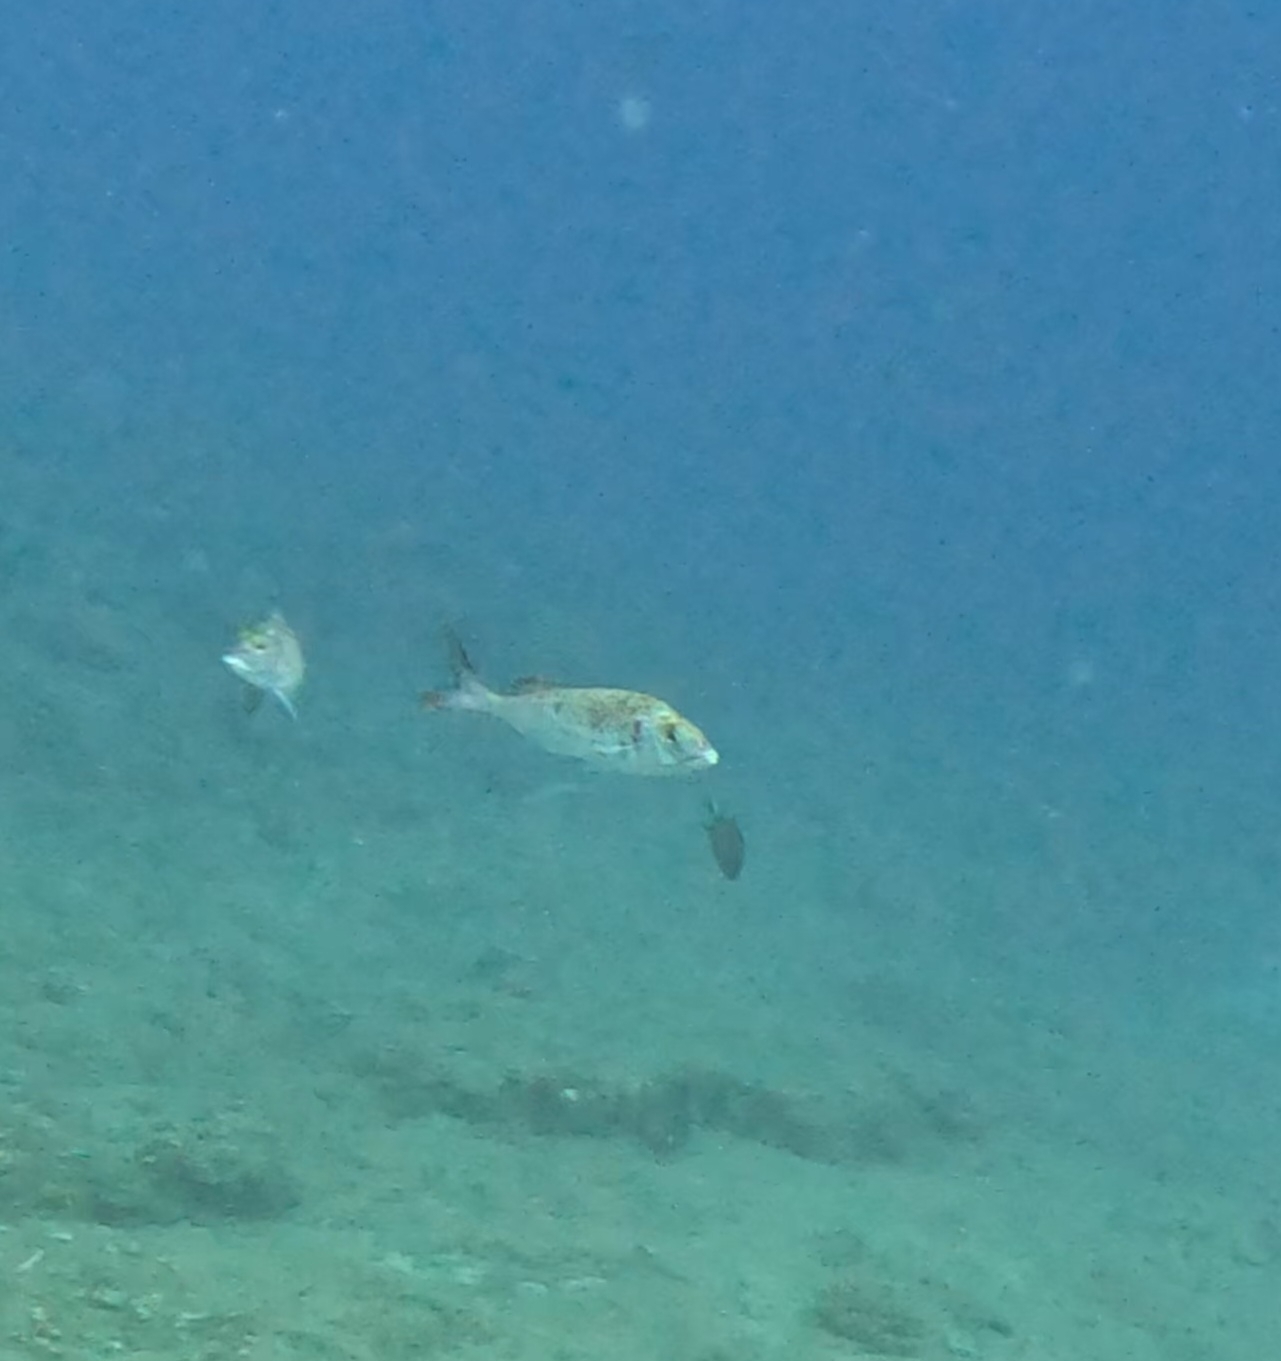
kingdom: Animalia
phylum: Chordata
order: Perciformes
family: Sparidae
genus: Pagellus
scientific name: Pagellus erythrinus
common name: Pandora
